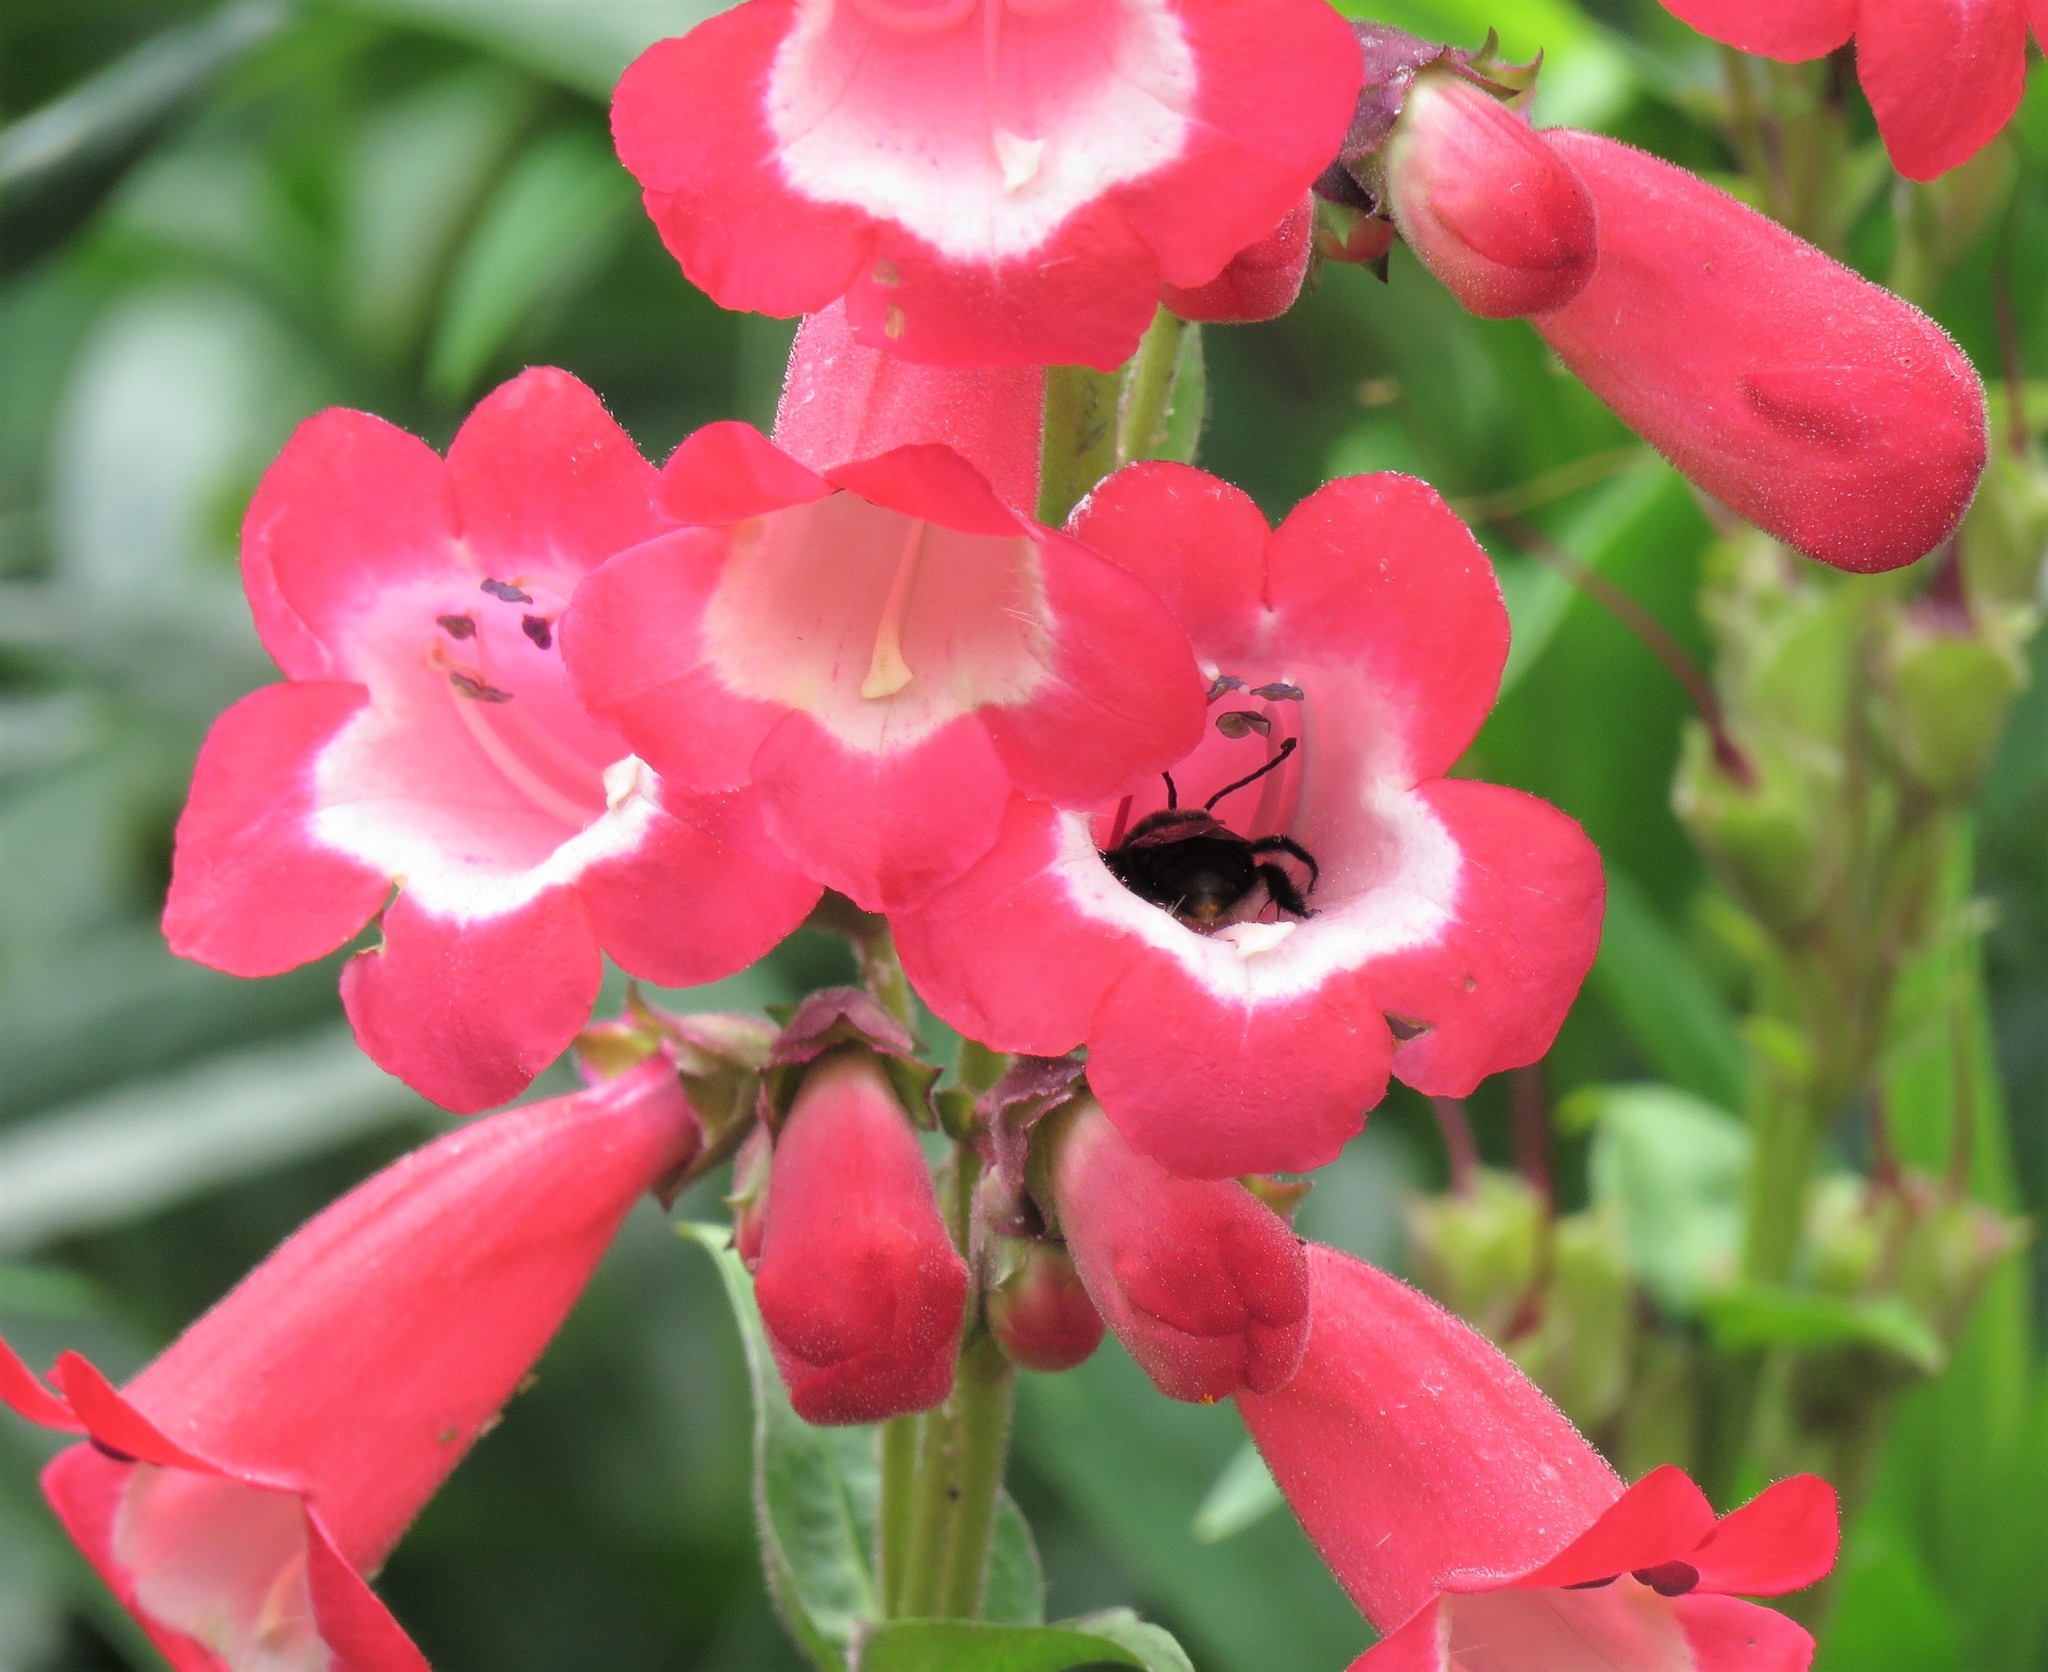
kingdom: Animalia
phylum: Arthropoda
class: Insecta
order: Hymenoptera
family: Apidae
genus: Thygater
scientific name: Thygater aethiops
